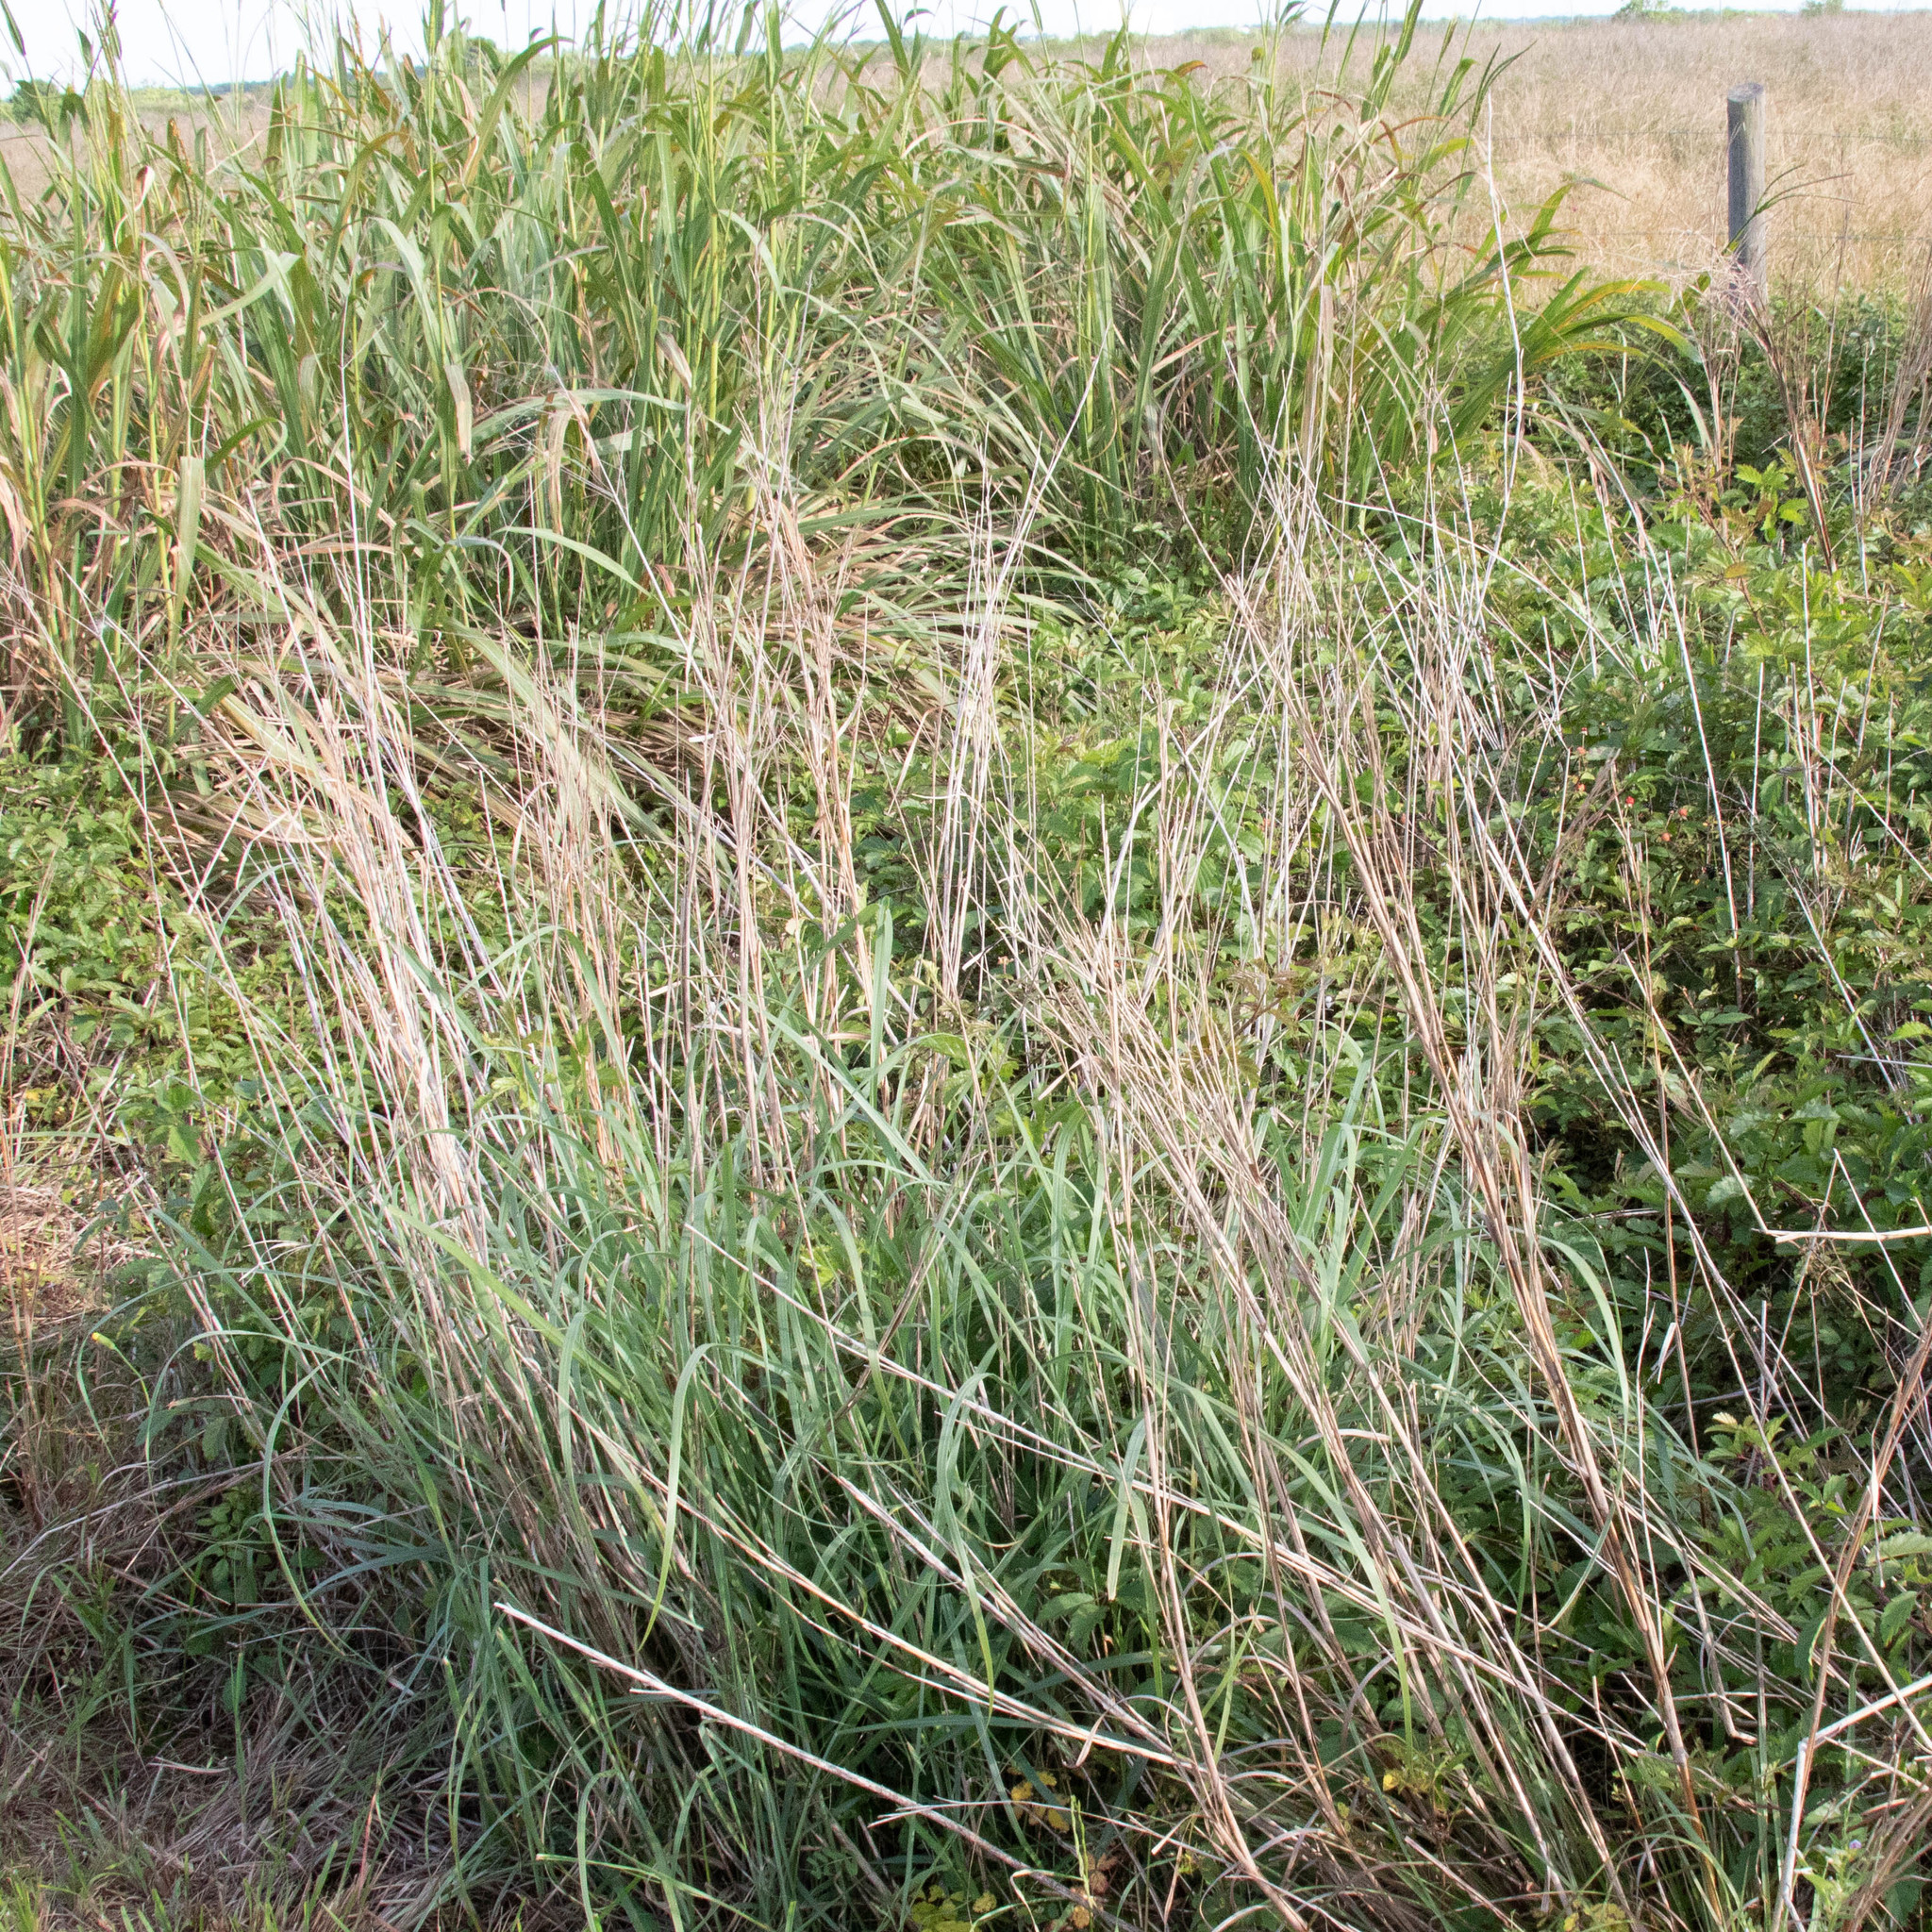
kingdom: Plantae
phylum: Tracheophyta
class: Liliopsida
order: Poales
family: Poaceae
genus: Panicum
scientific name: Panicum virgatum
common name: Switchgrass
